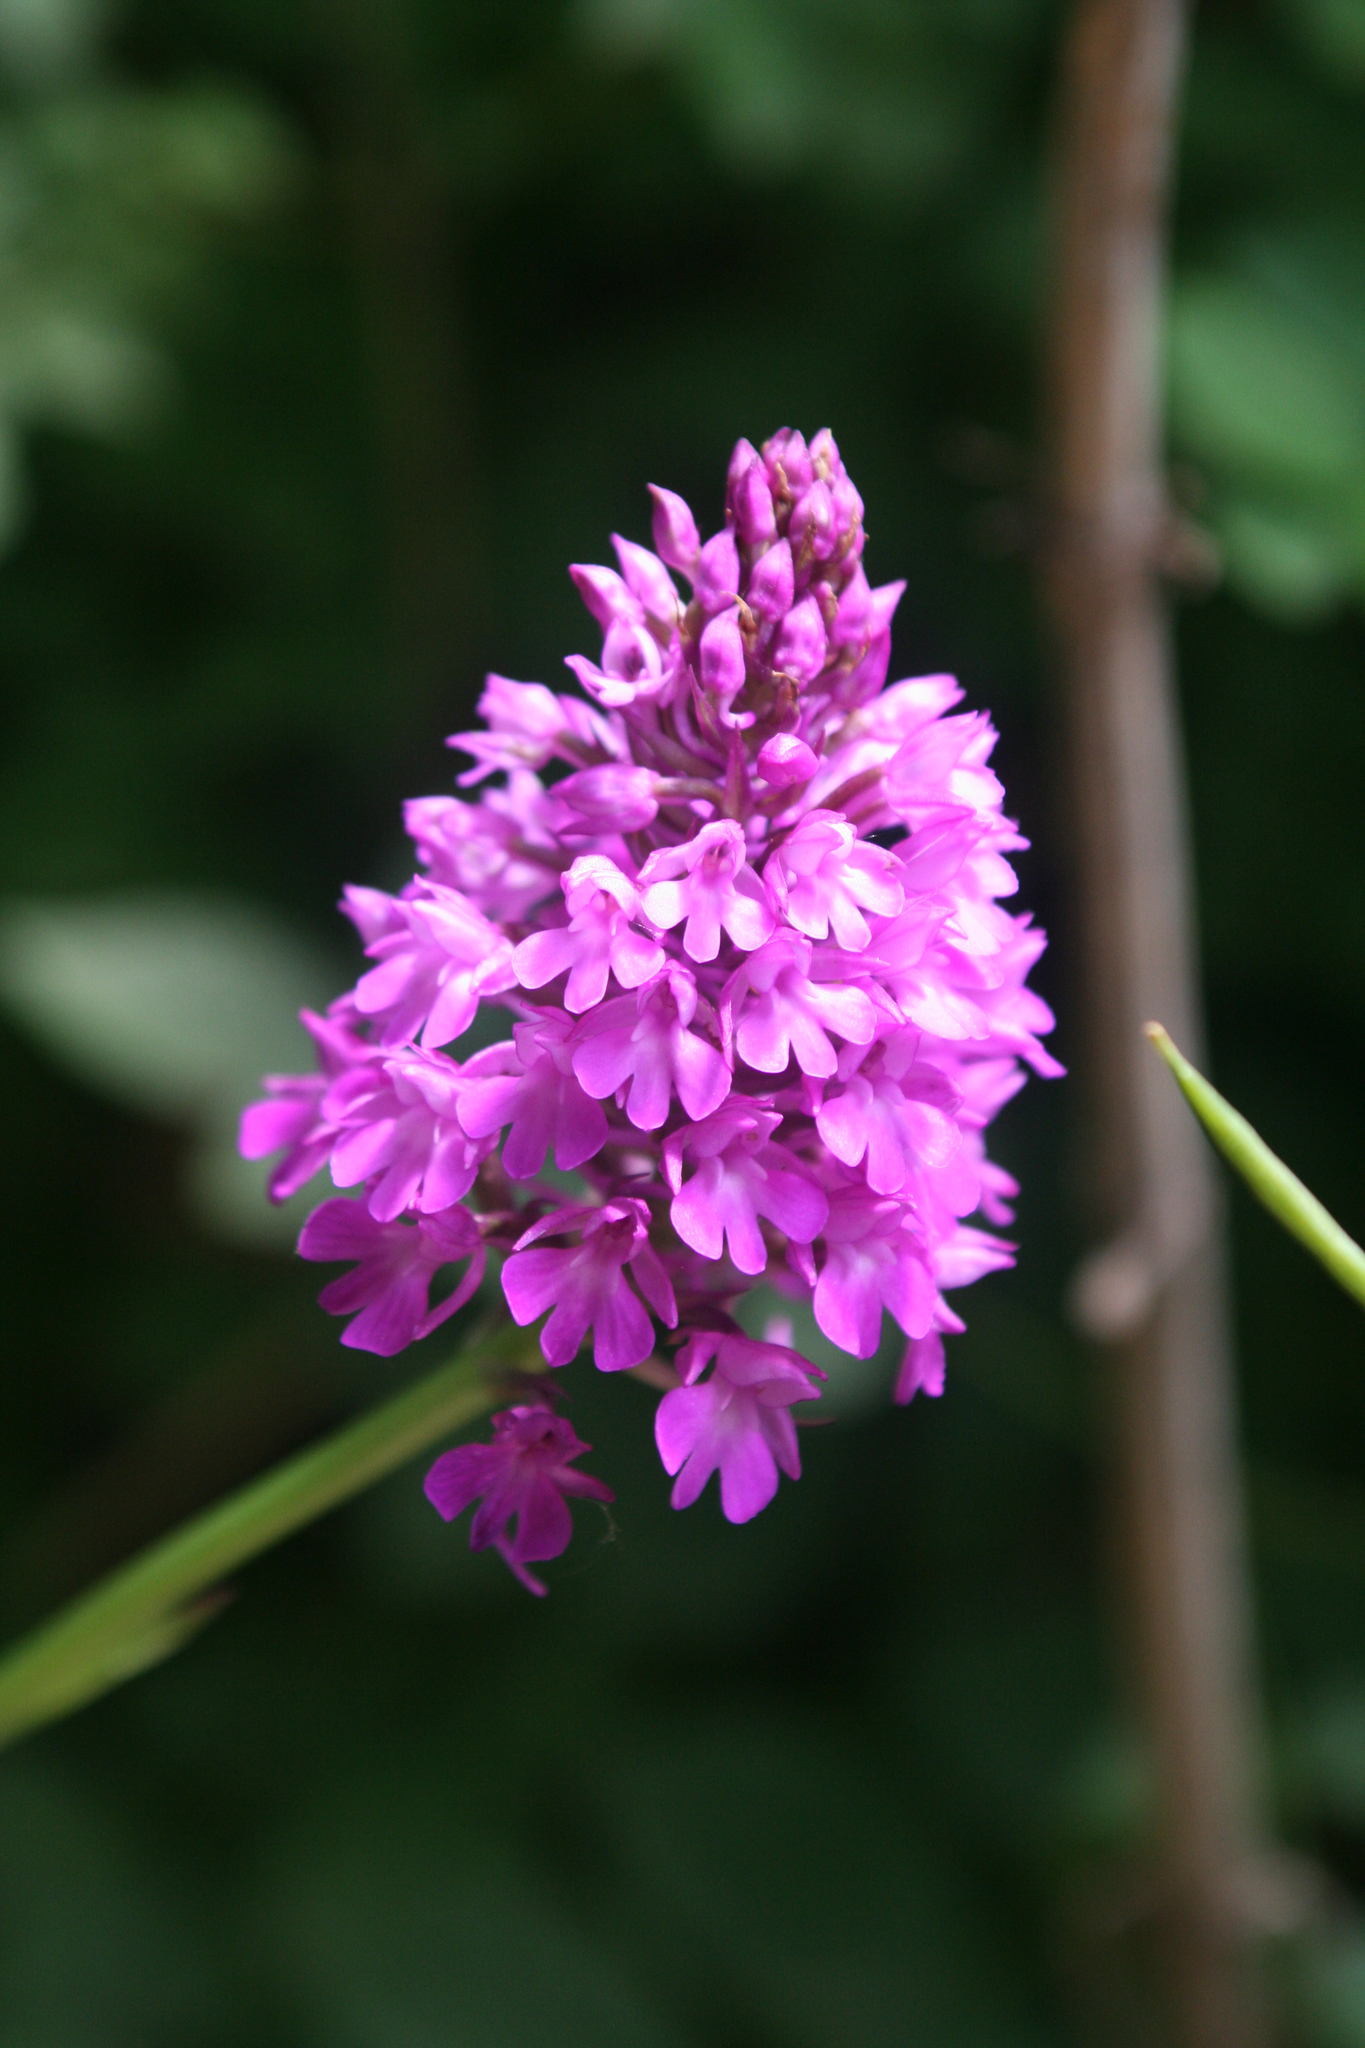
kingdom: Plantae
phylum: Tracheophyta
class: Liliopsida
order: Asparagales
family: Orchidaceae
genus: Anacamptis
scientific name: Anacamptis pyramidalis
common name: Pyramidal orchid
